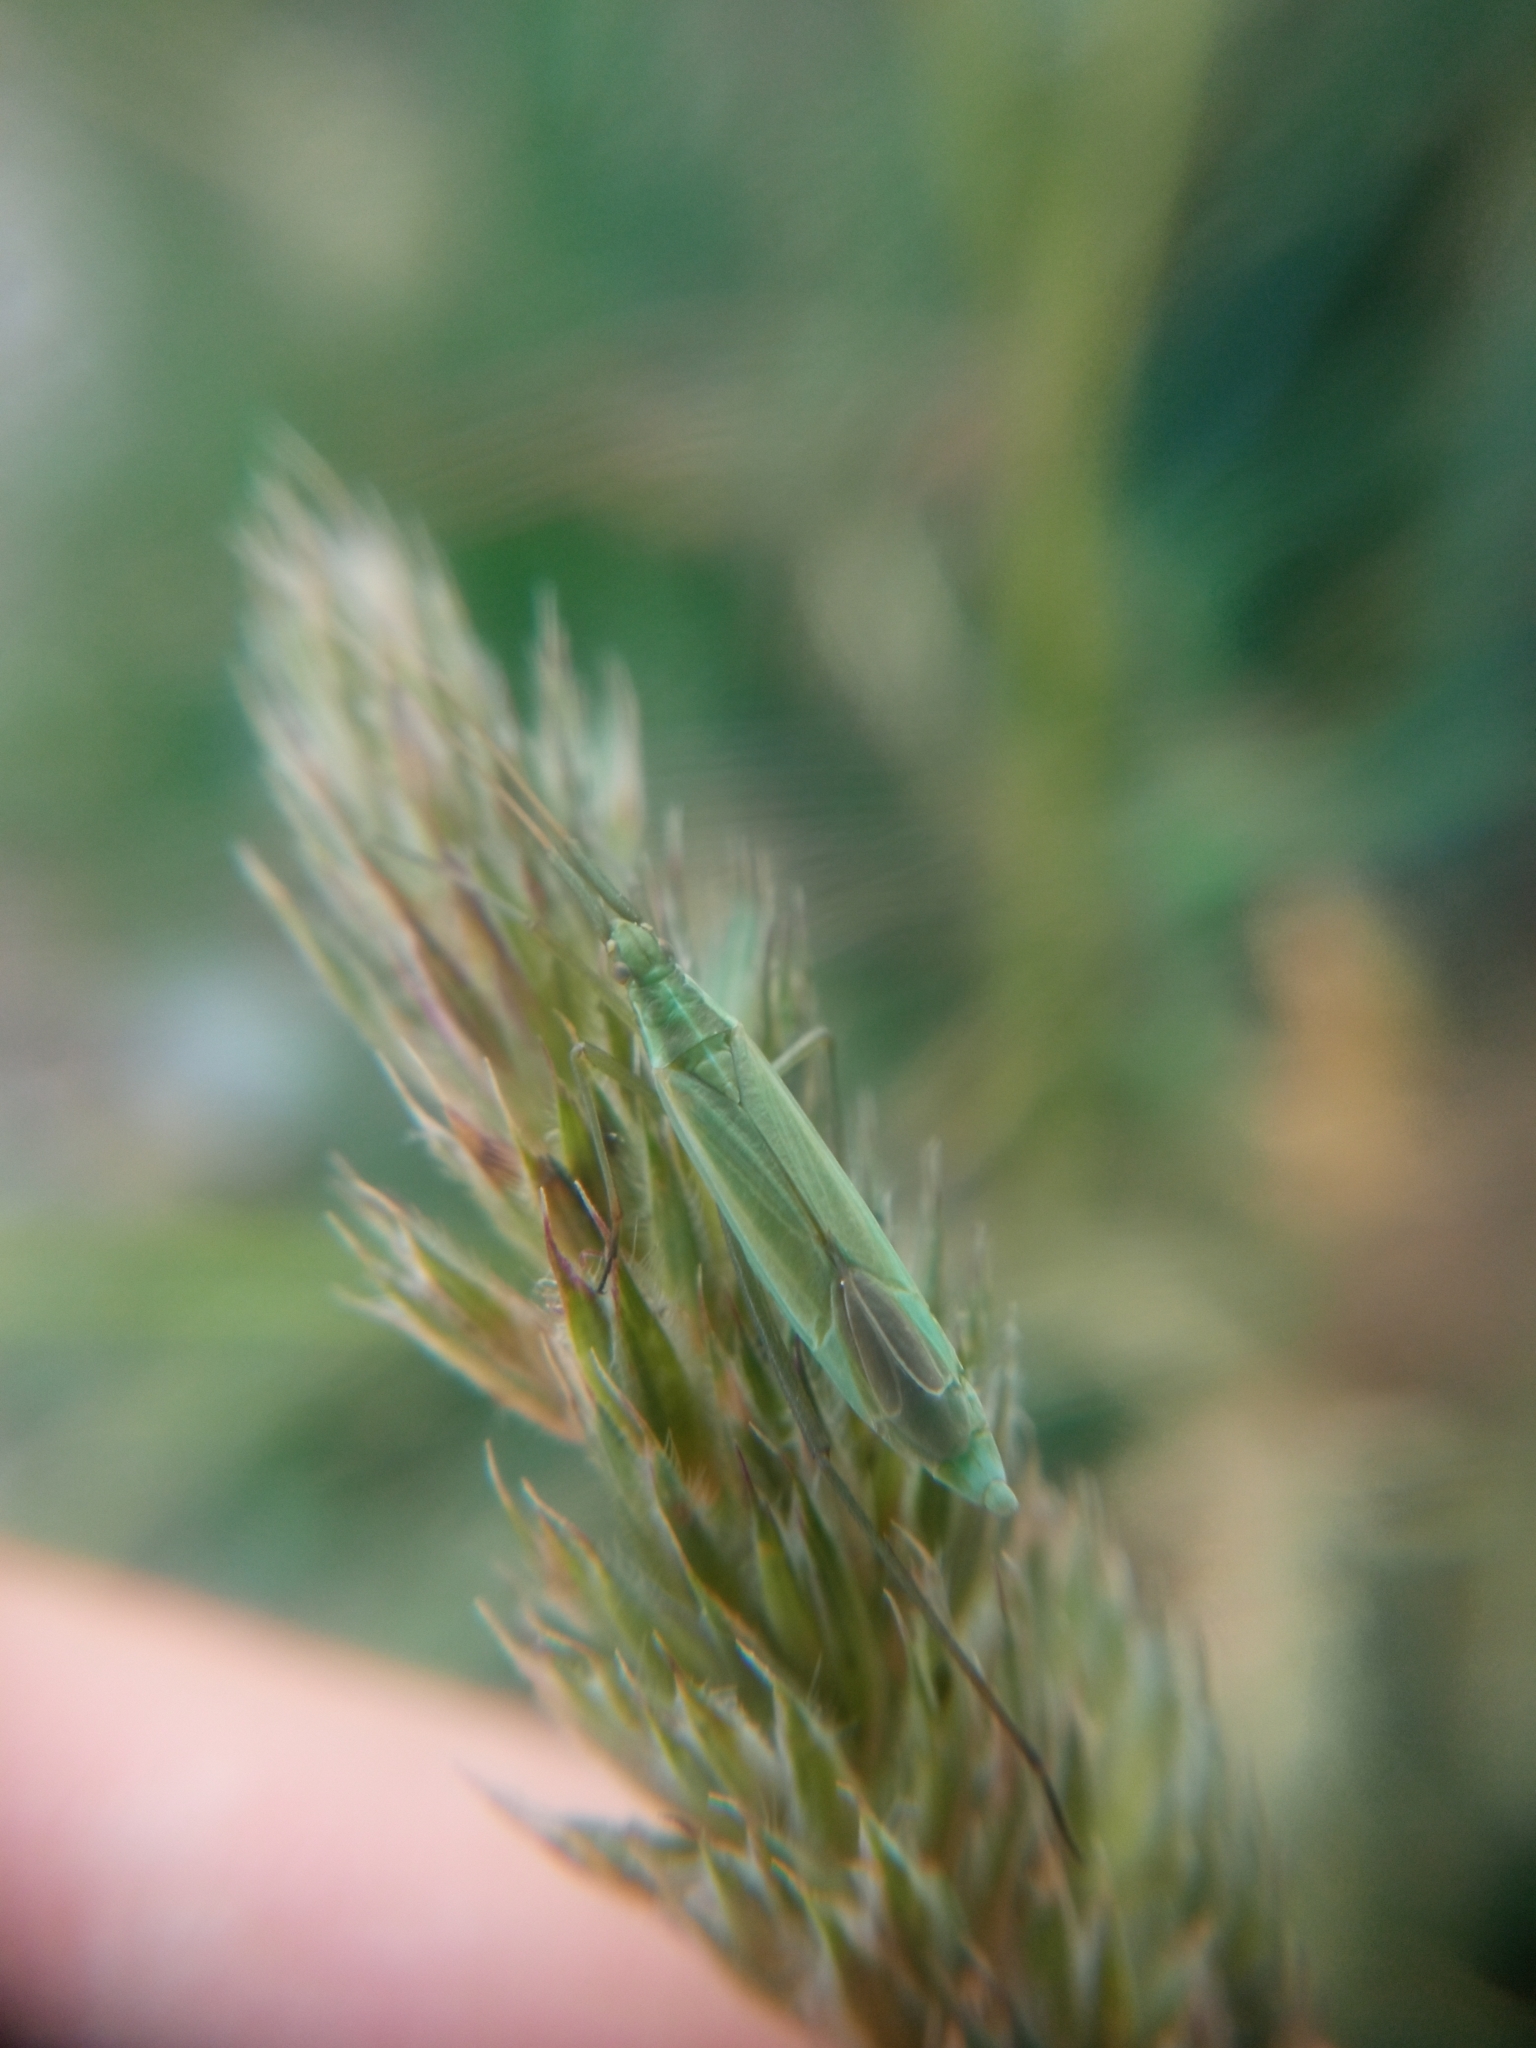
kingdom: Animalia
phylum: Arthropoda
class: Insecta
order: Hemiptera
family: Miridae
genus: Megaloceroea
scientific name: Megaloceroea recticornis
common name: Plant bug
